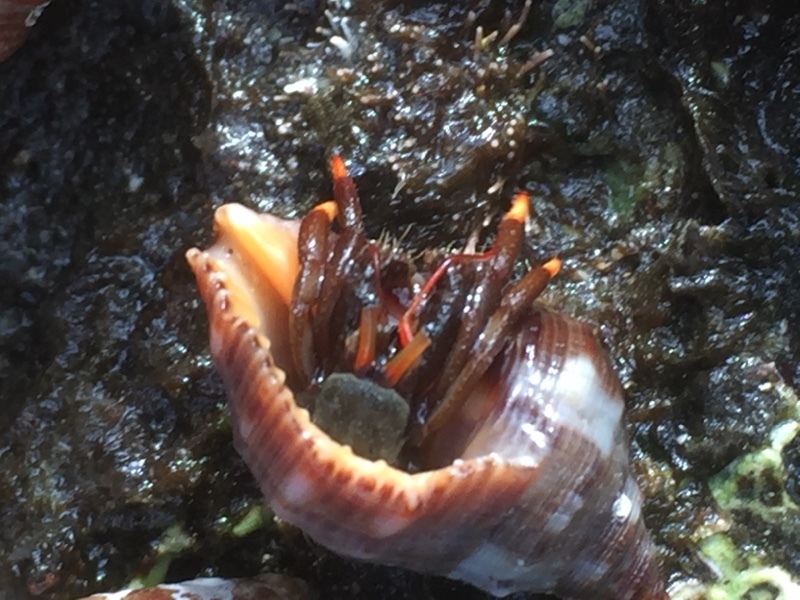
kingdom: Animalia
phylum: Arthropoda
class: Malacostraca
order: Decapoda
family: Diogenidae
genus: Clibanarius
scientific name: Clibanarius aequabilis
